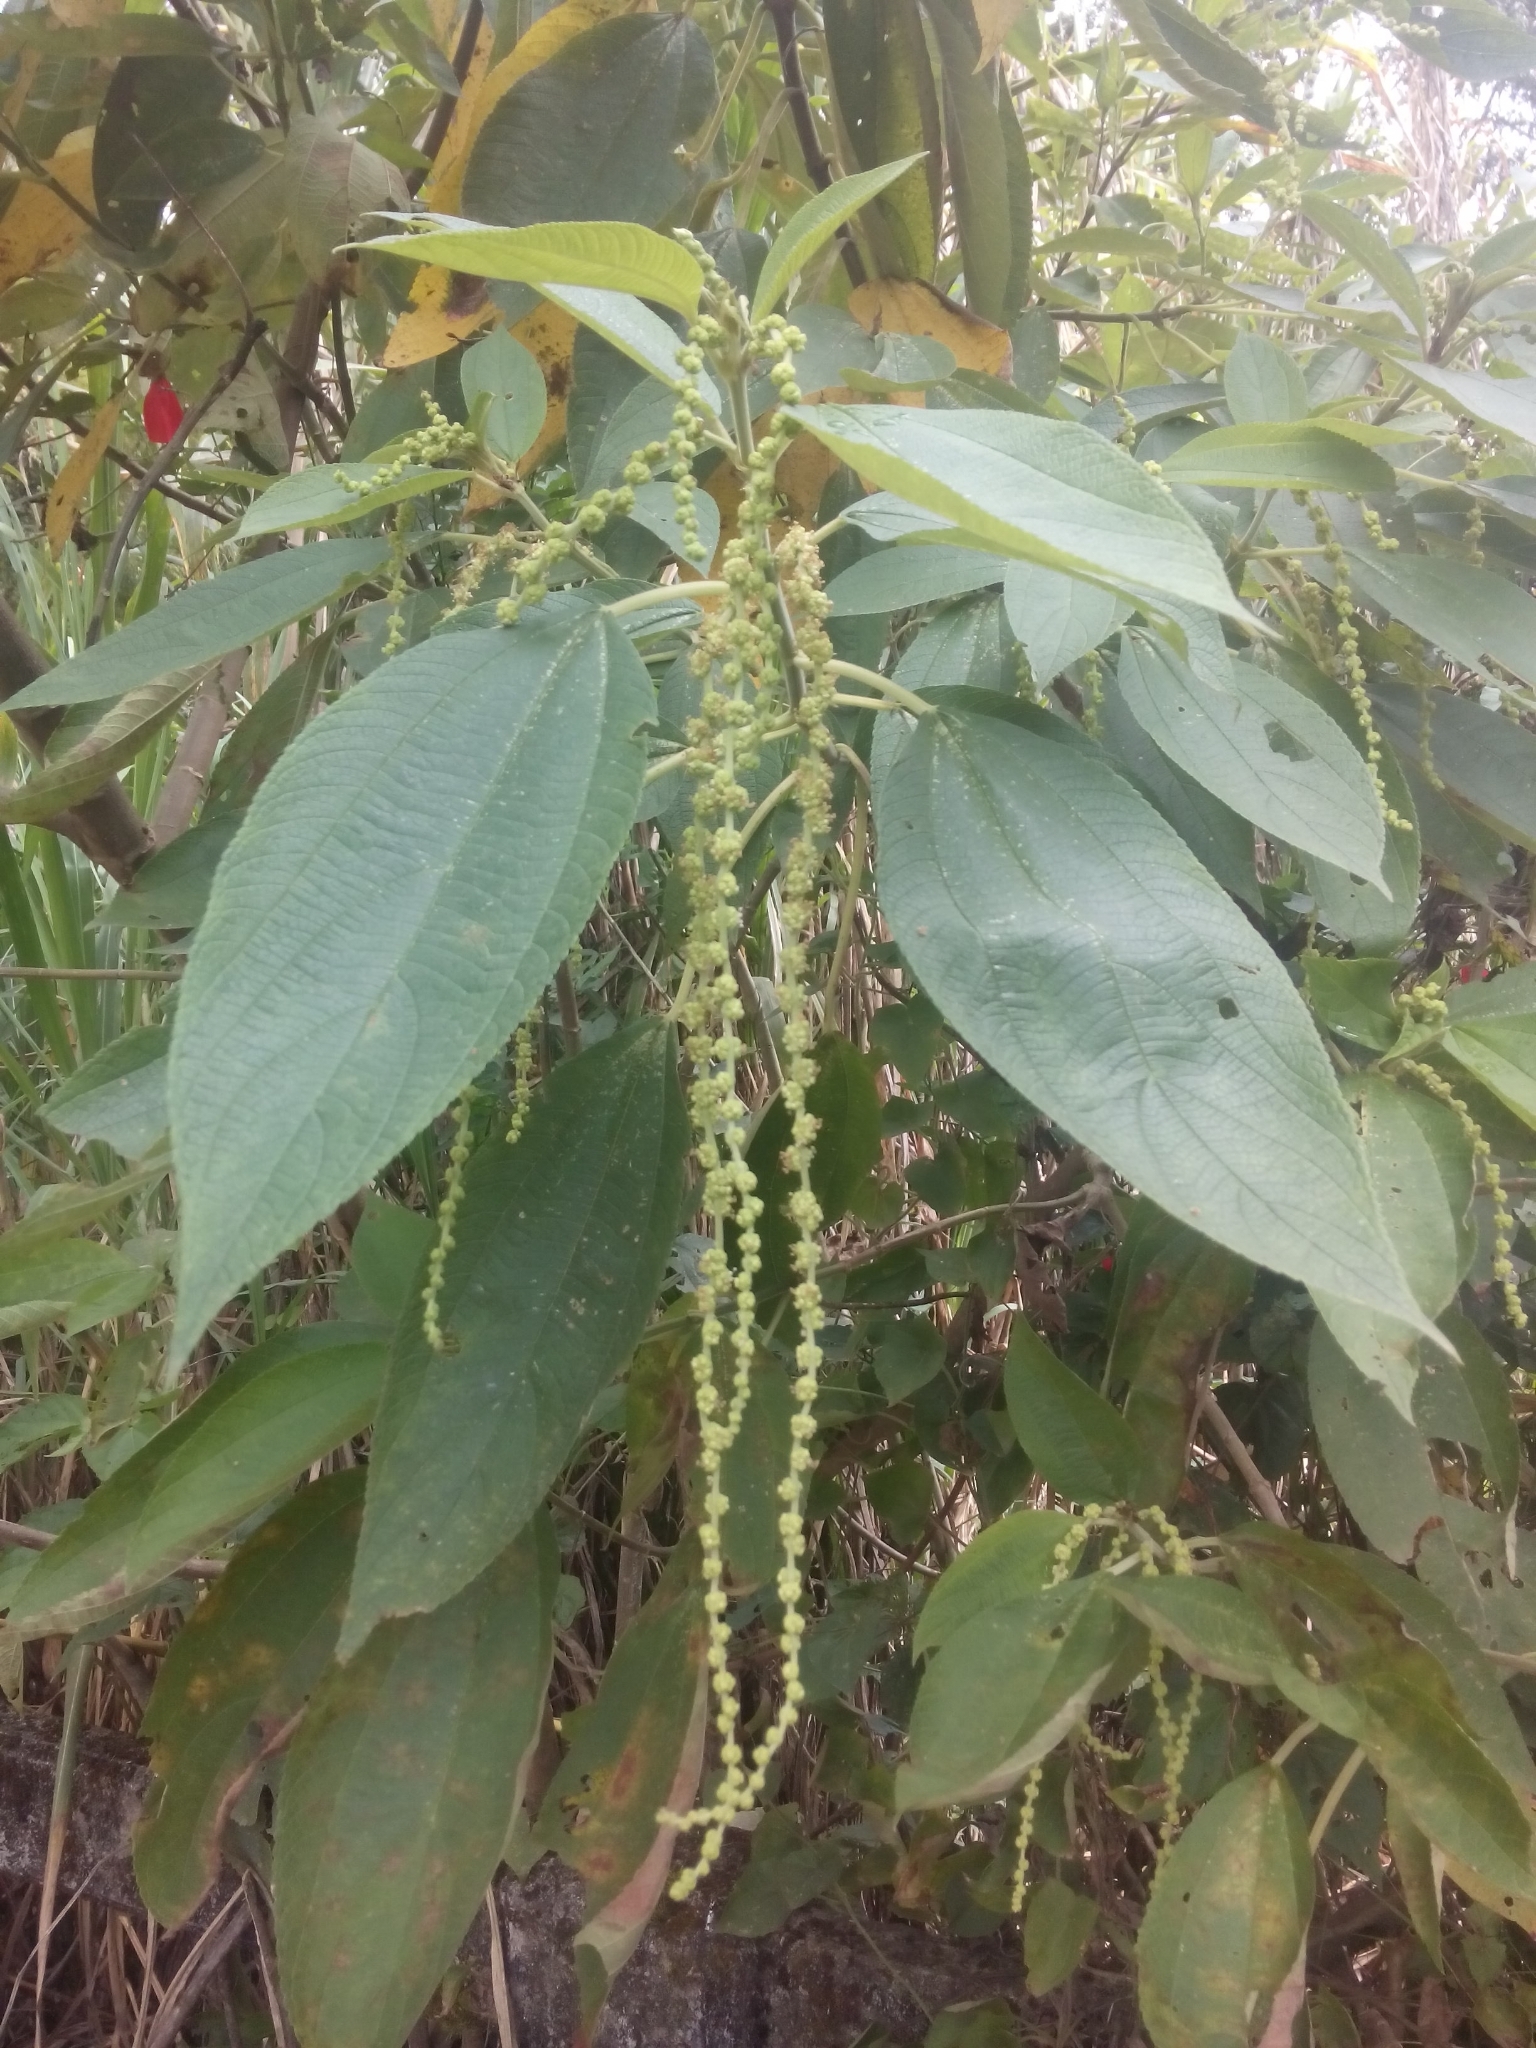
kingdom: Plantae
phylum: Tracheophyta
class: Magnoliopsida
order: Rosales
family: Urticaceae
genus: Boehmeria
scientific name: Boehmeria caudata
